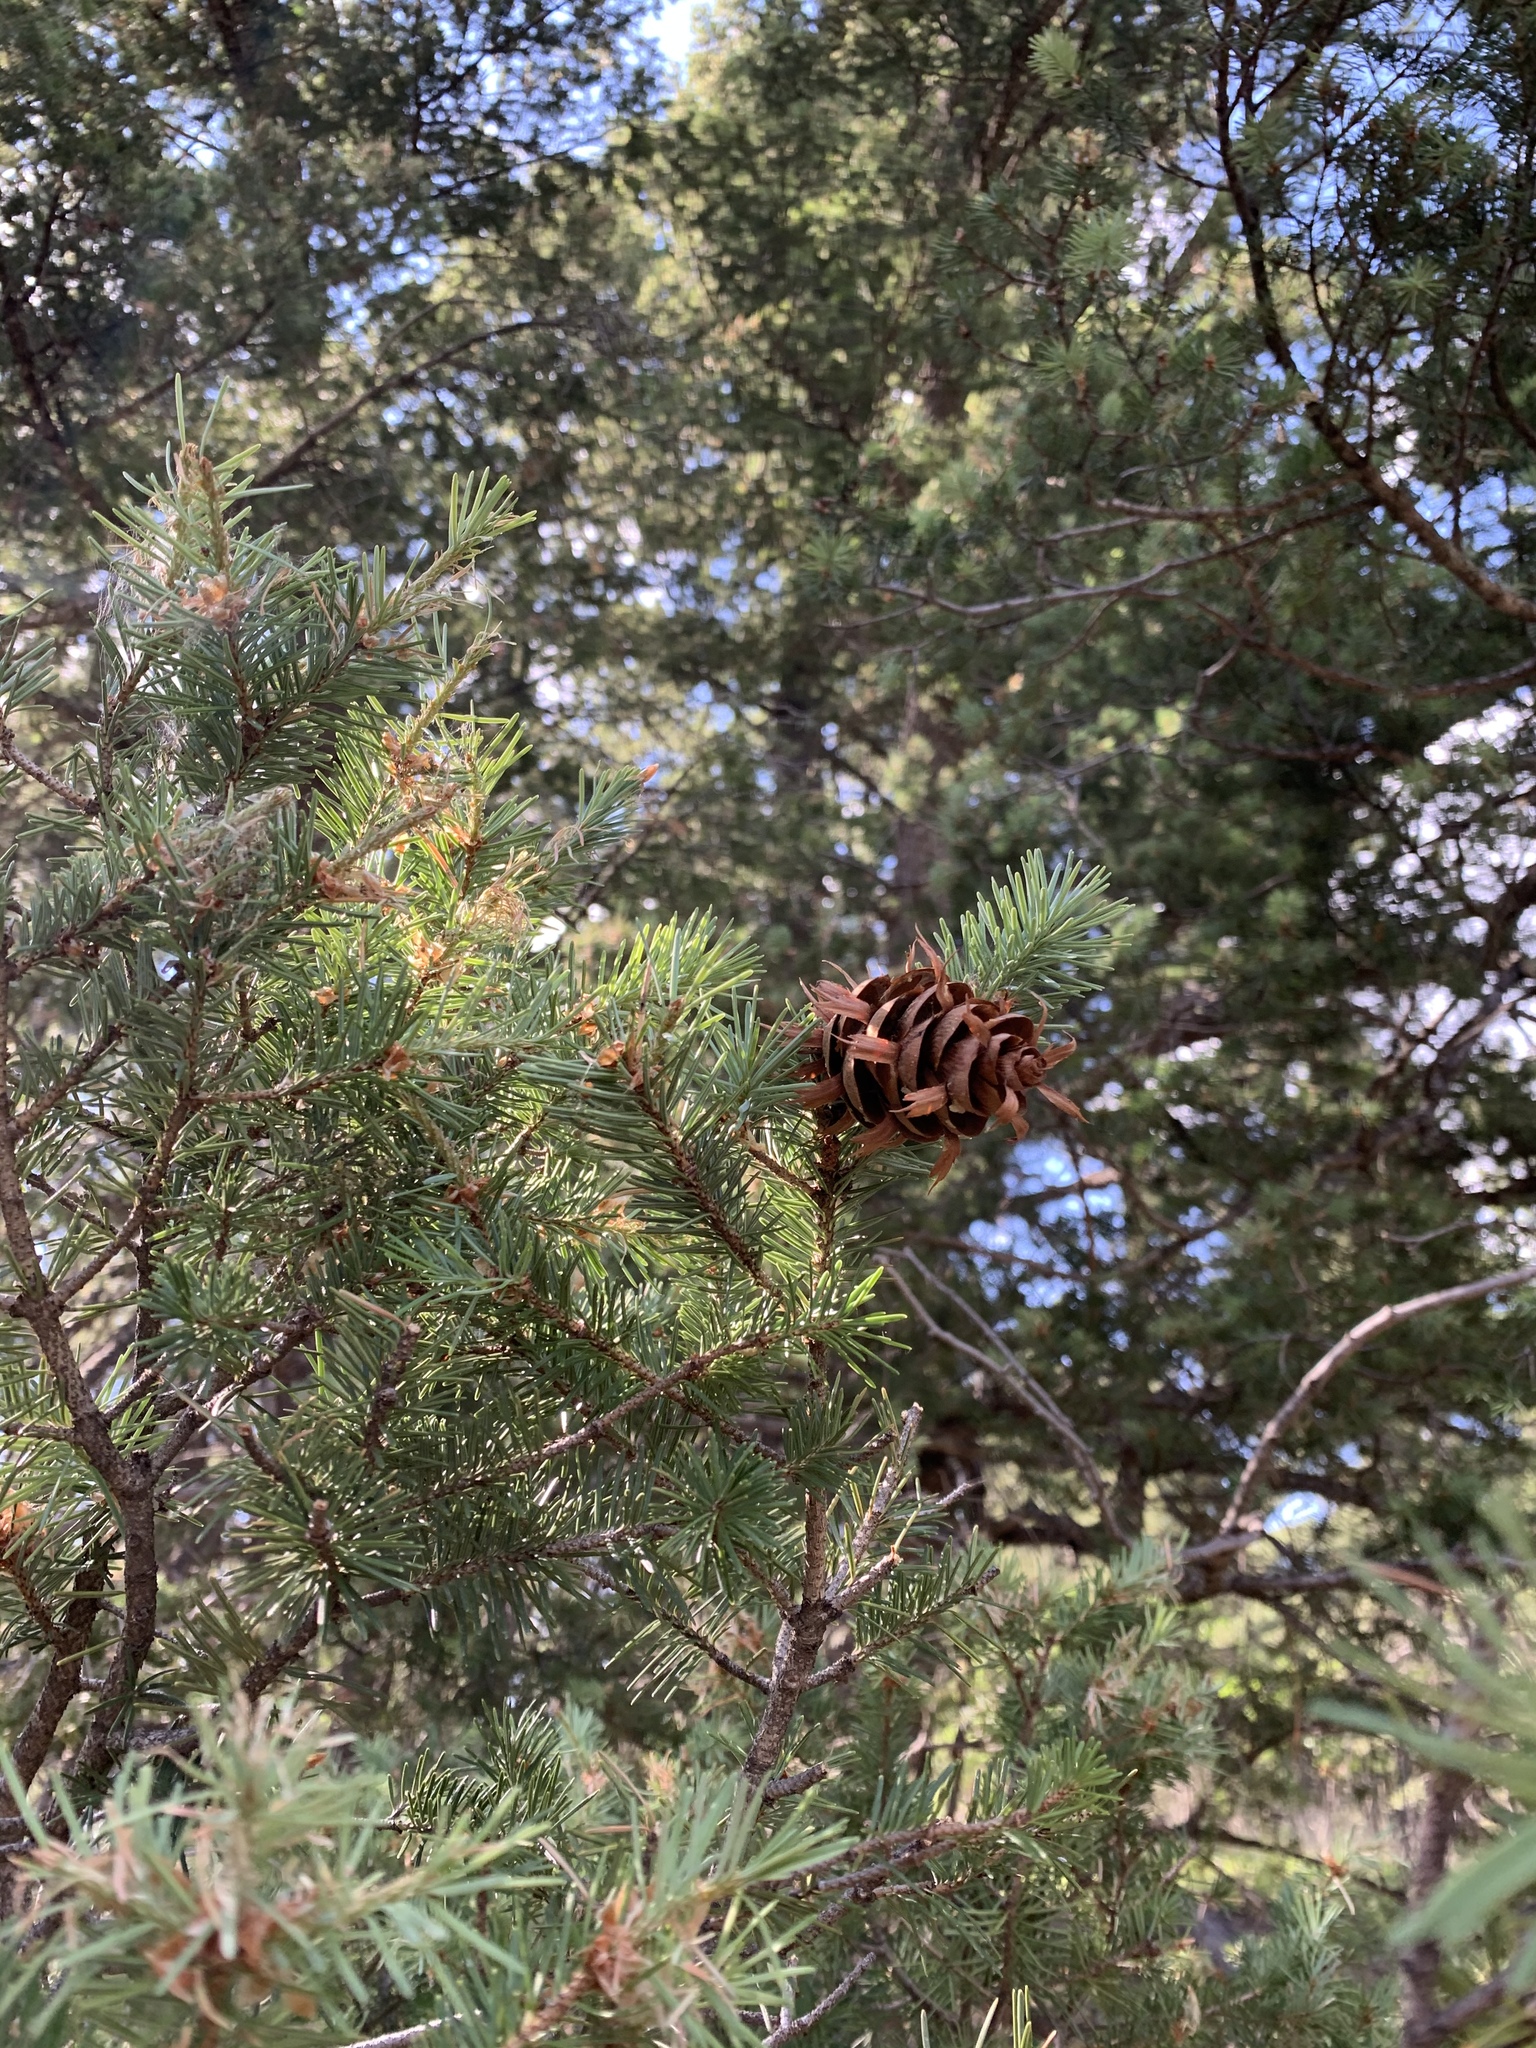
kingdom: Plantae
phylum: Tracheophyta
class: Pinopsida
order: Pinales
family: Pinaceae
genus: Pseudotsuga
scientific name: Pseudotsuga menziesii
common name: Douglas fir
